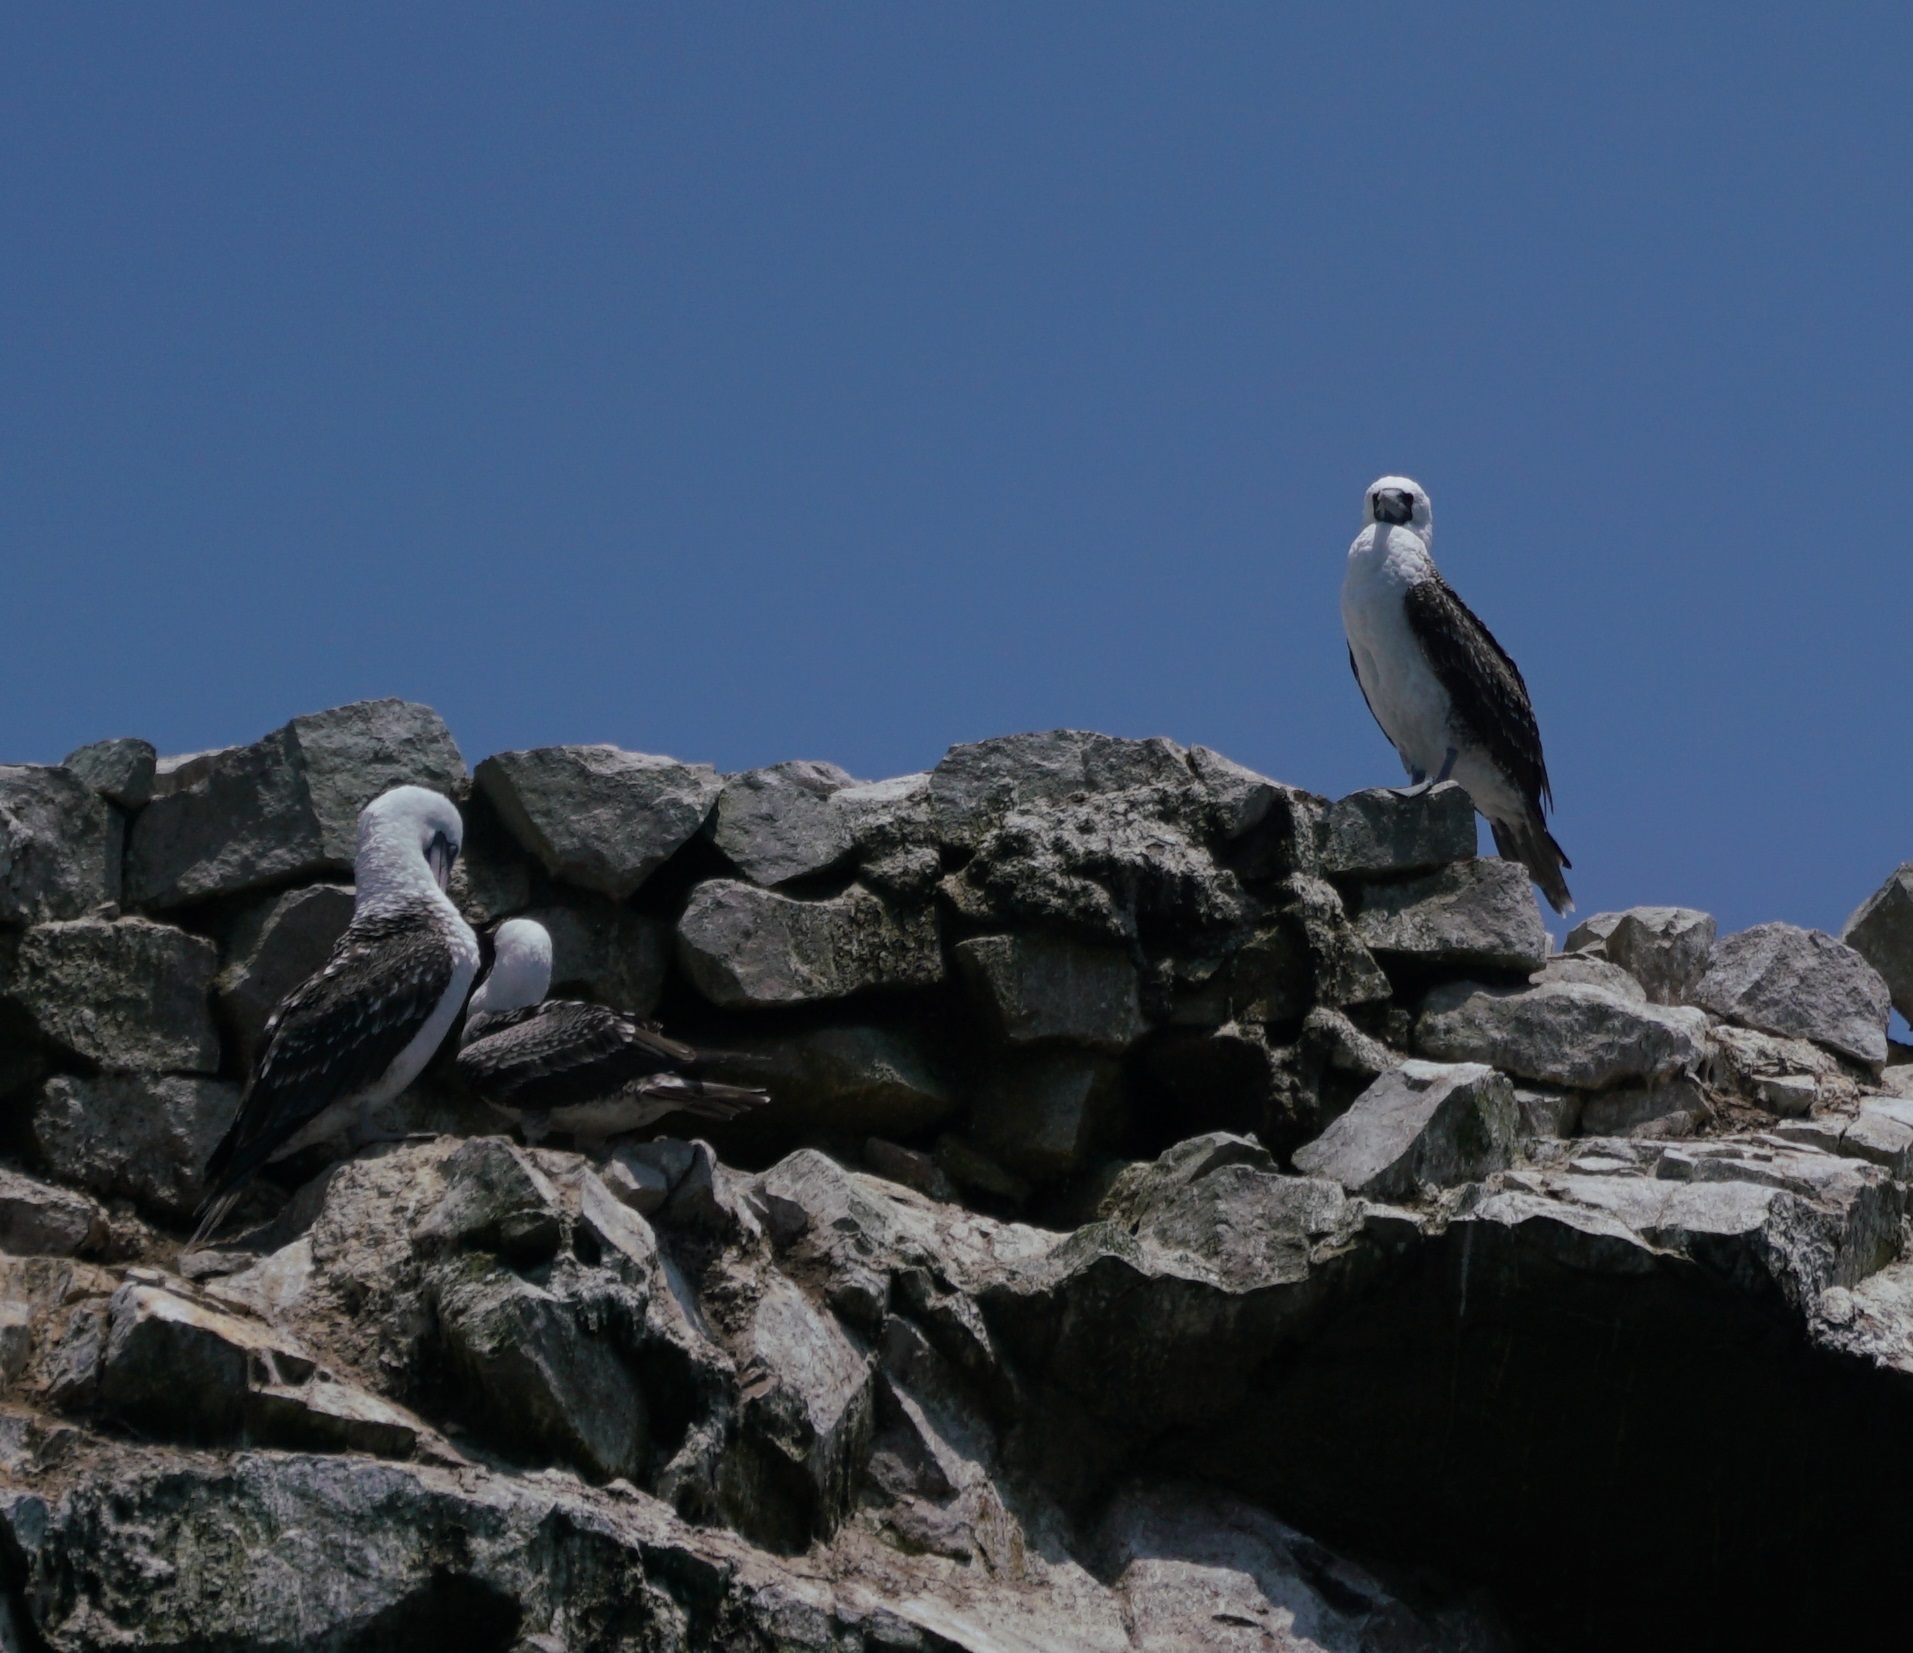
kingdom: Animalia
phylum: Chordata
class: Aves
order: Suliformes
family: Sulidae
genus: Sula
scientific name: Sula variegata
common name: Peruvian booby
